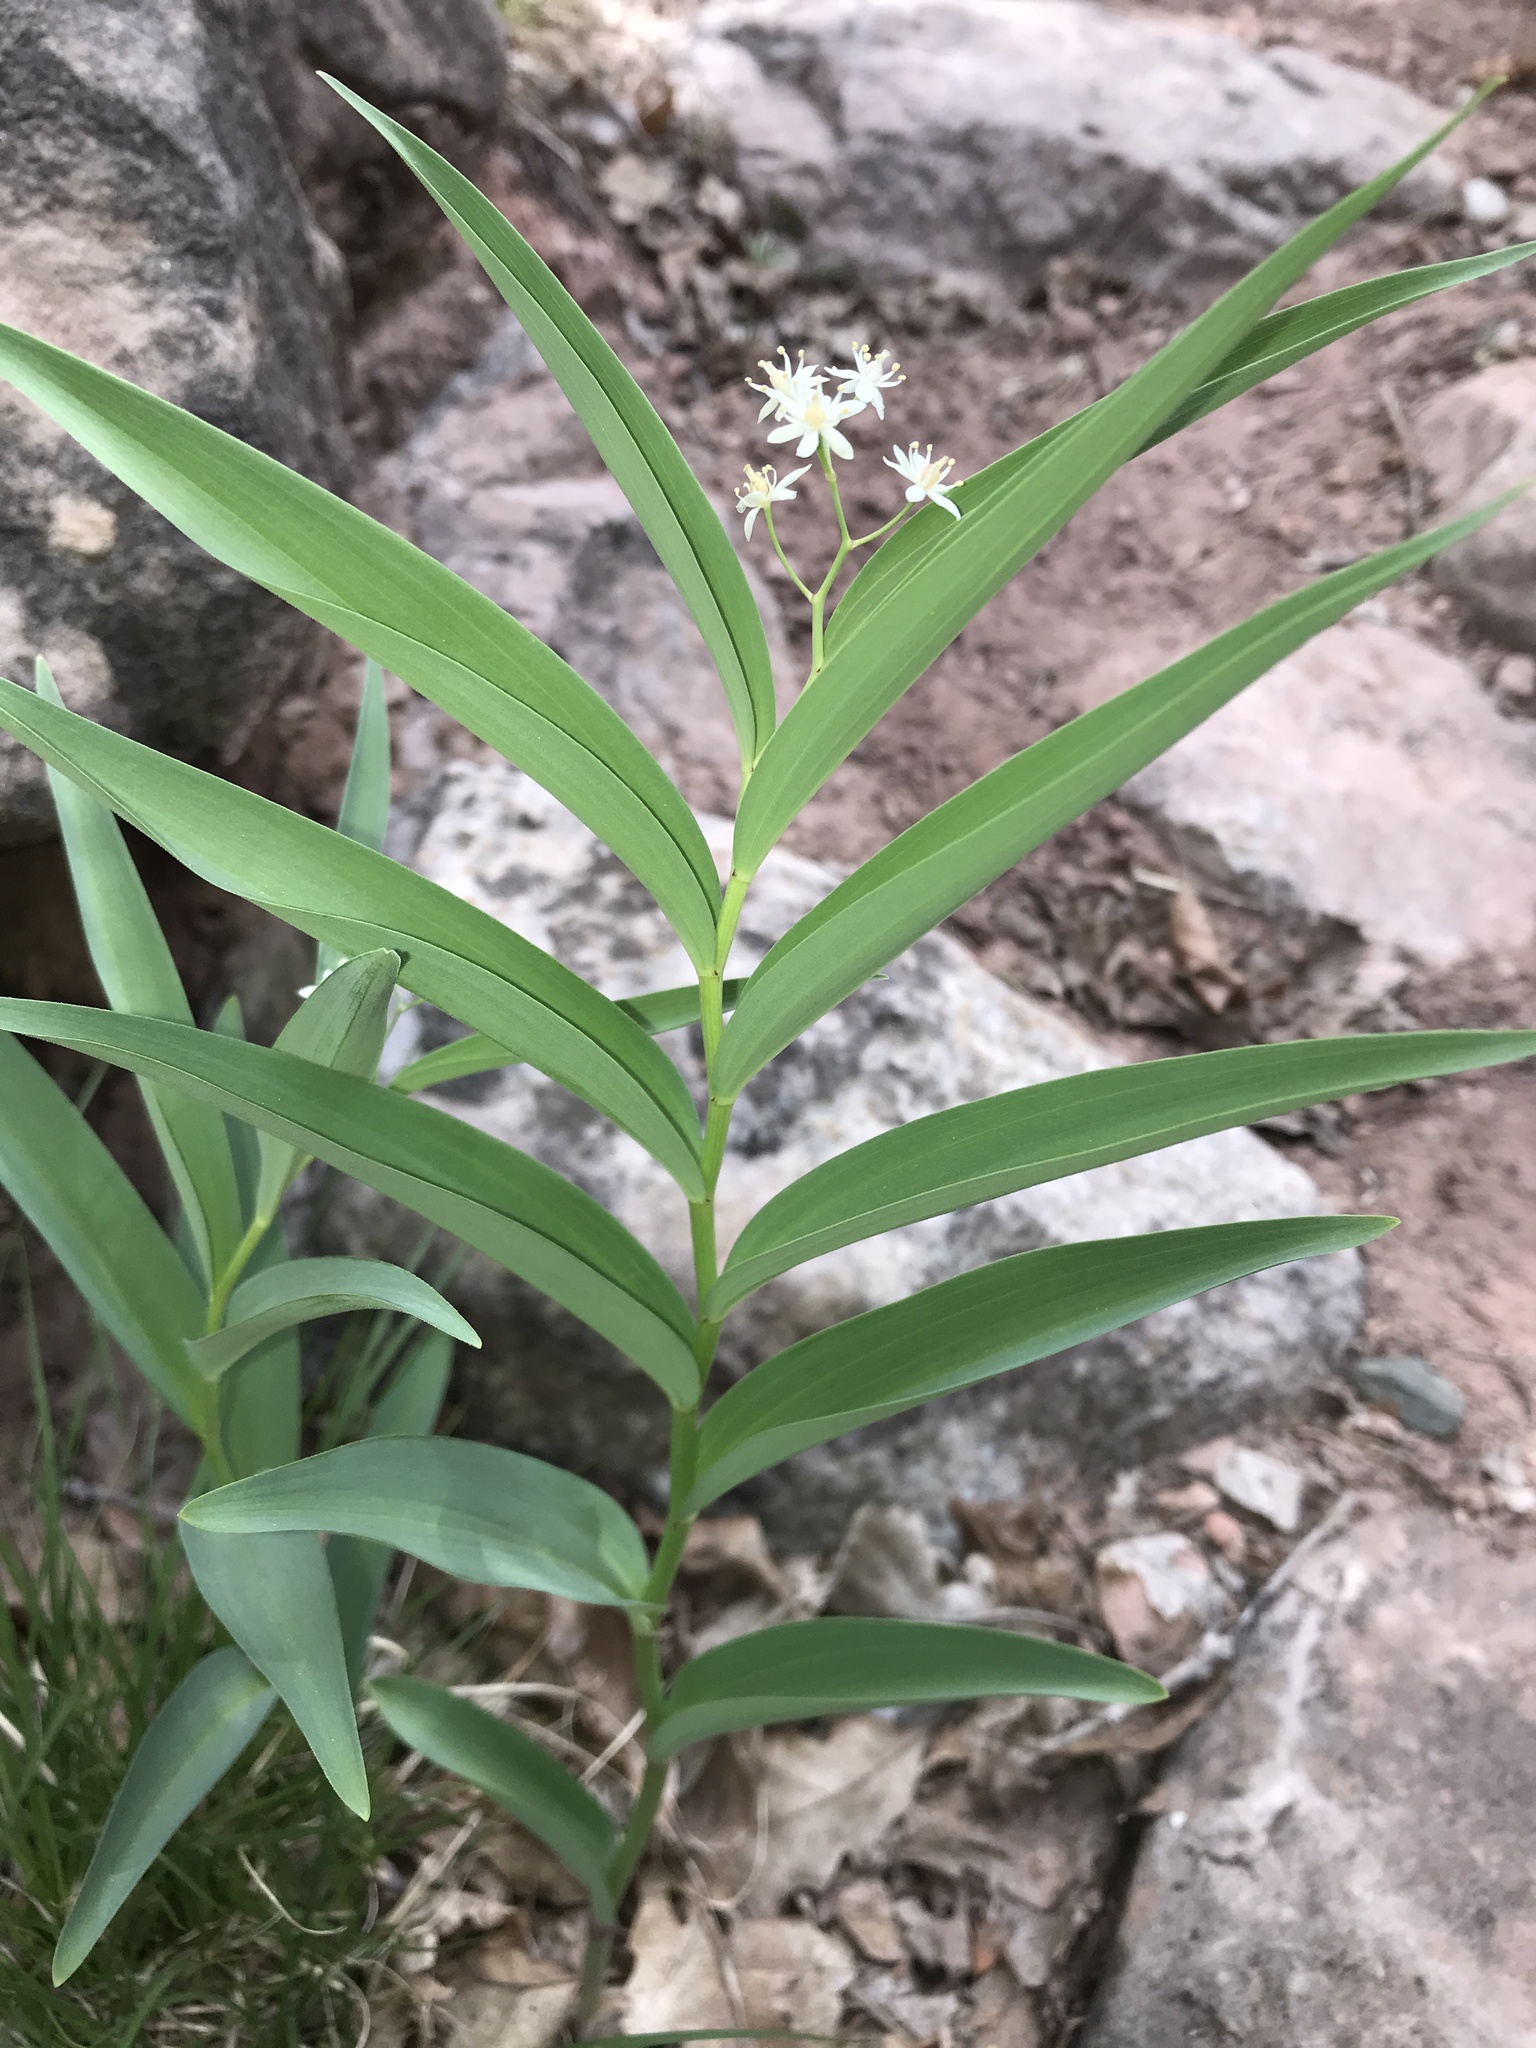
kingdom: Plantae
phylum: Tracheophyta
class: Liliopsida
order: Asparagales
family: Asparagaceae
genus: Maianthemum
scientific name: Maianthemum stellatum
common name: Little false solomon's seal
